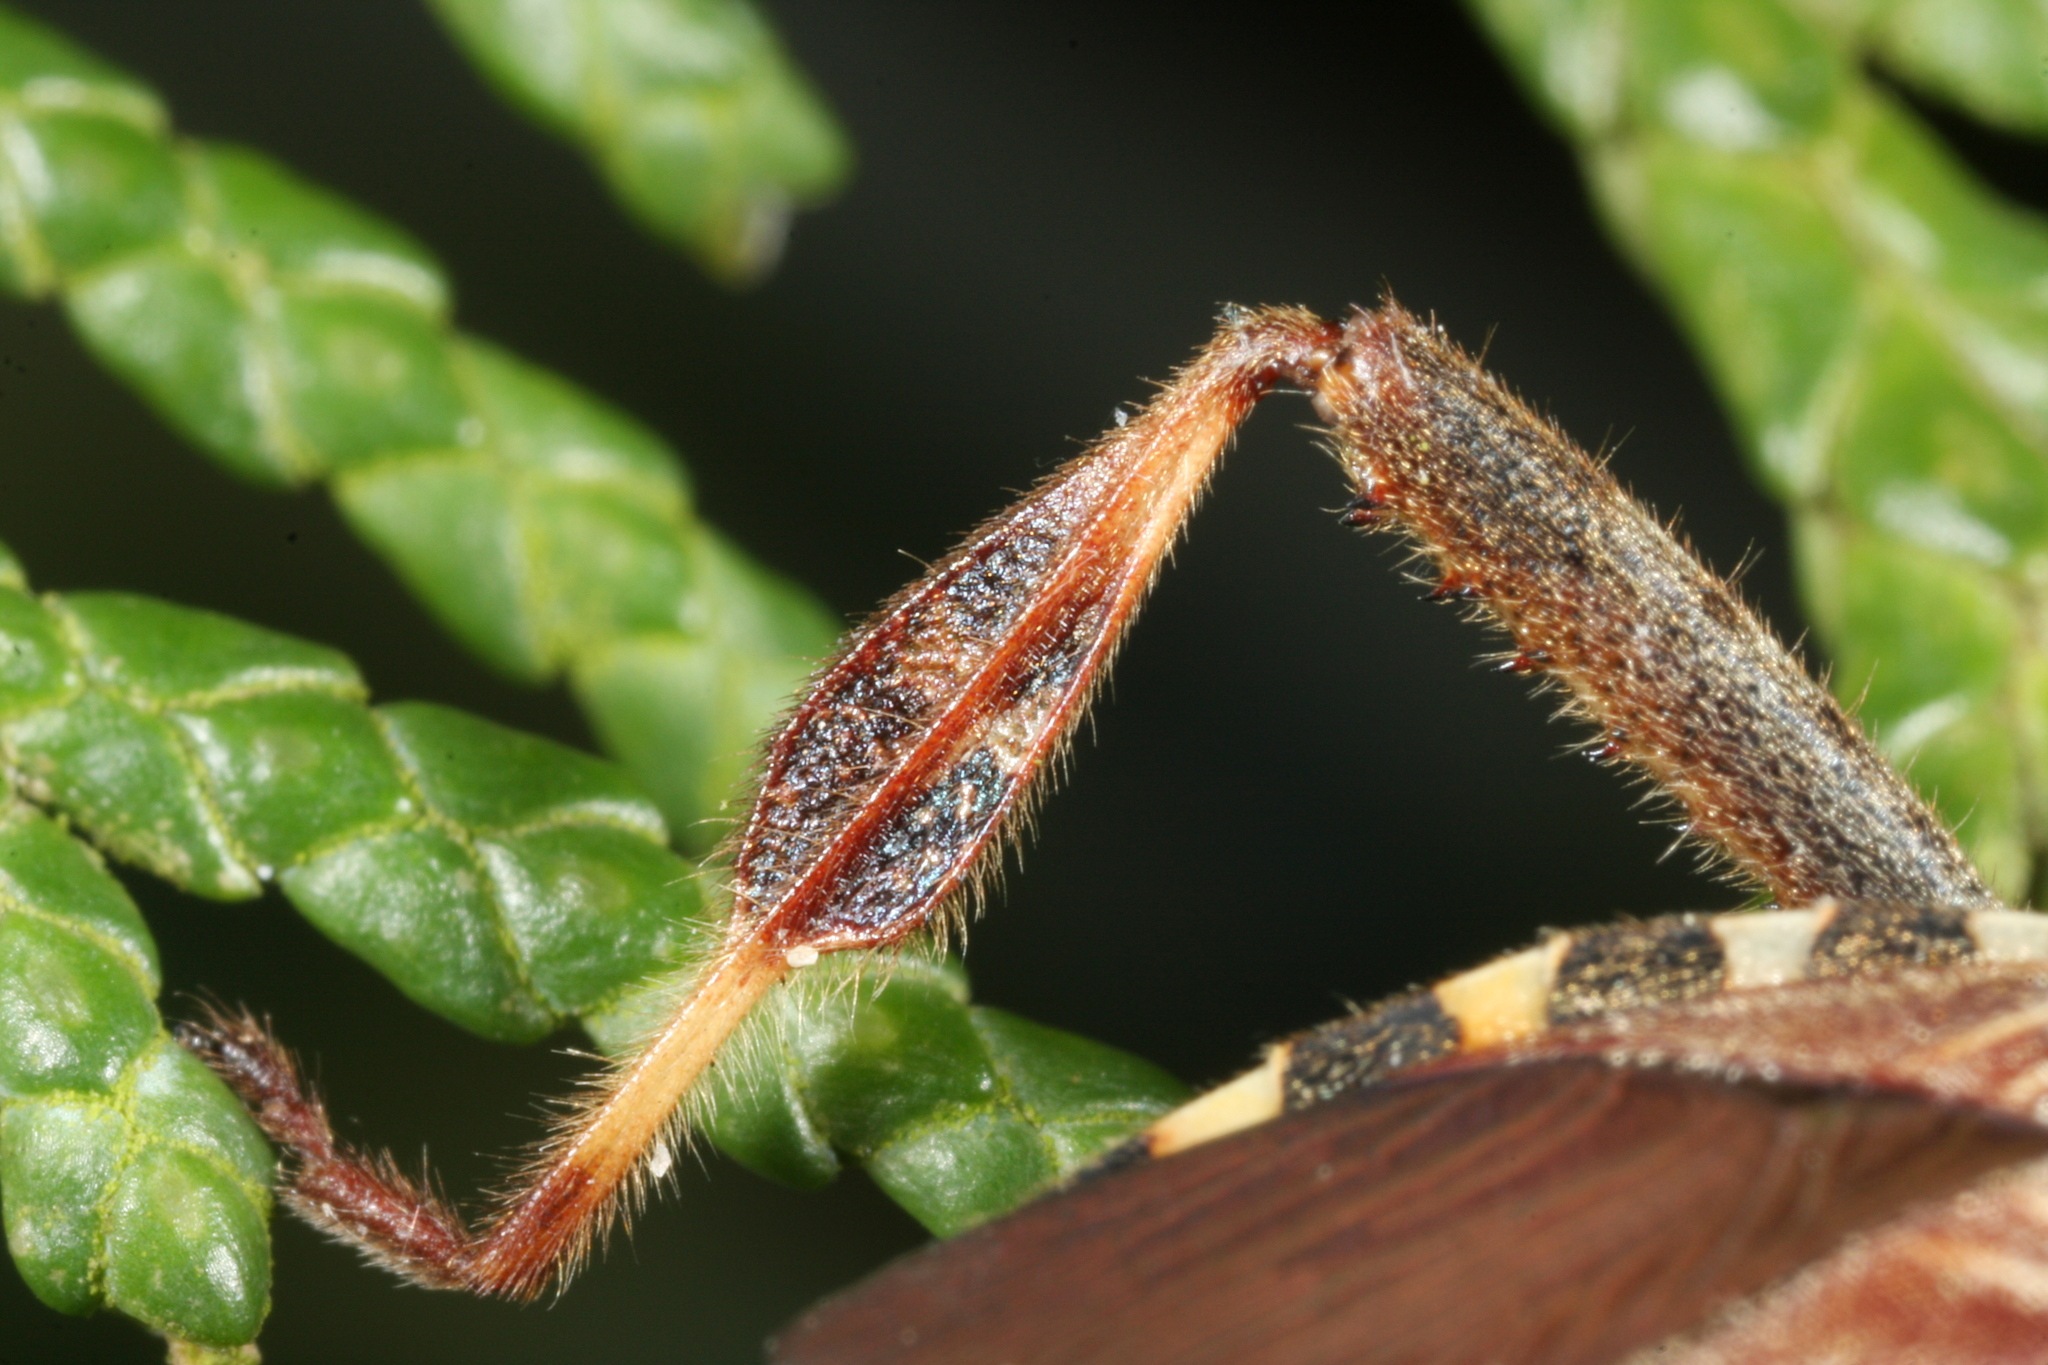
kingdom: Animalia
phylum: Arthropoda
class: Insecta
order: Hemiptera
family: Coreidae
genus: Leptoglossus
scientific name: Leptoglossus occidentalis
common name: Western conifer-seed bug
